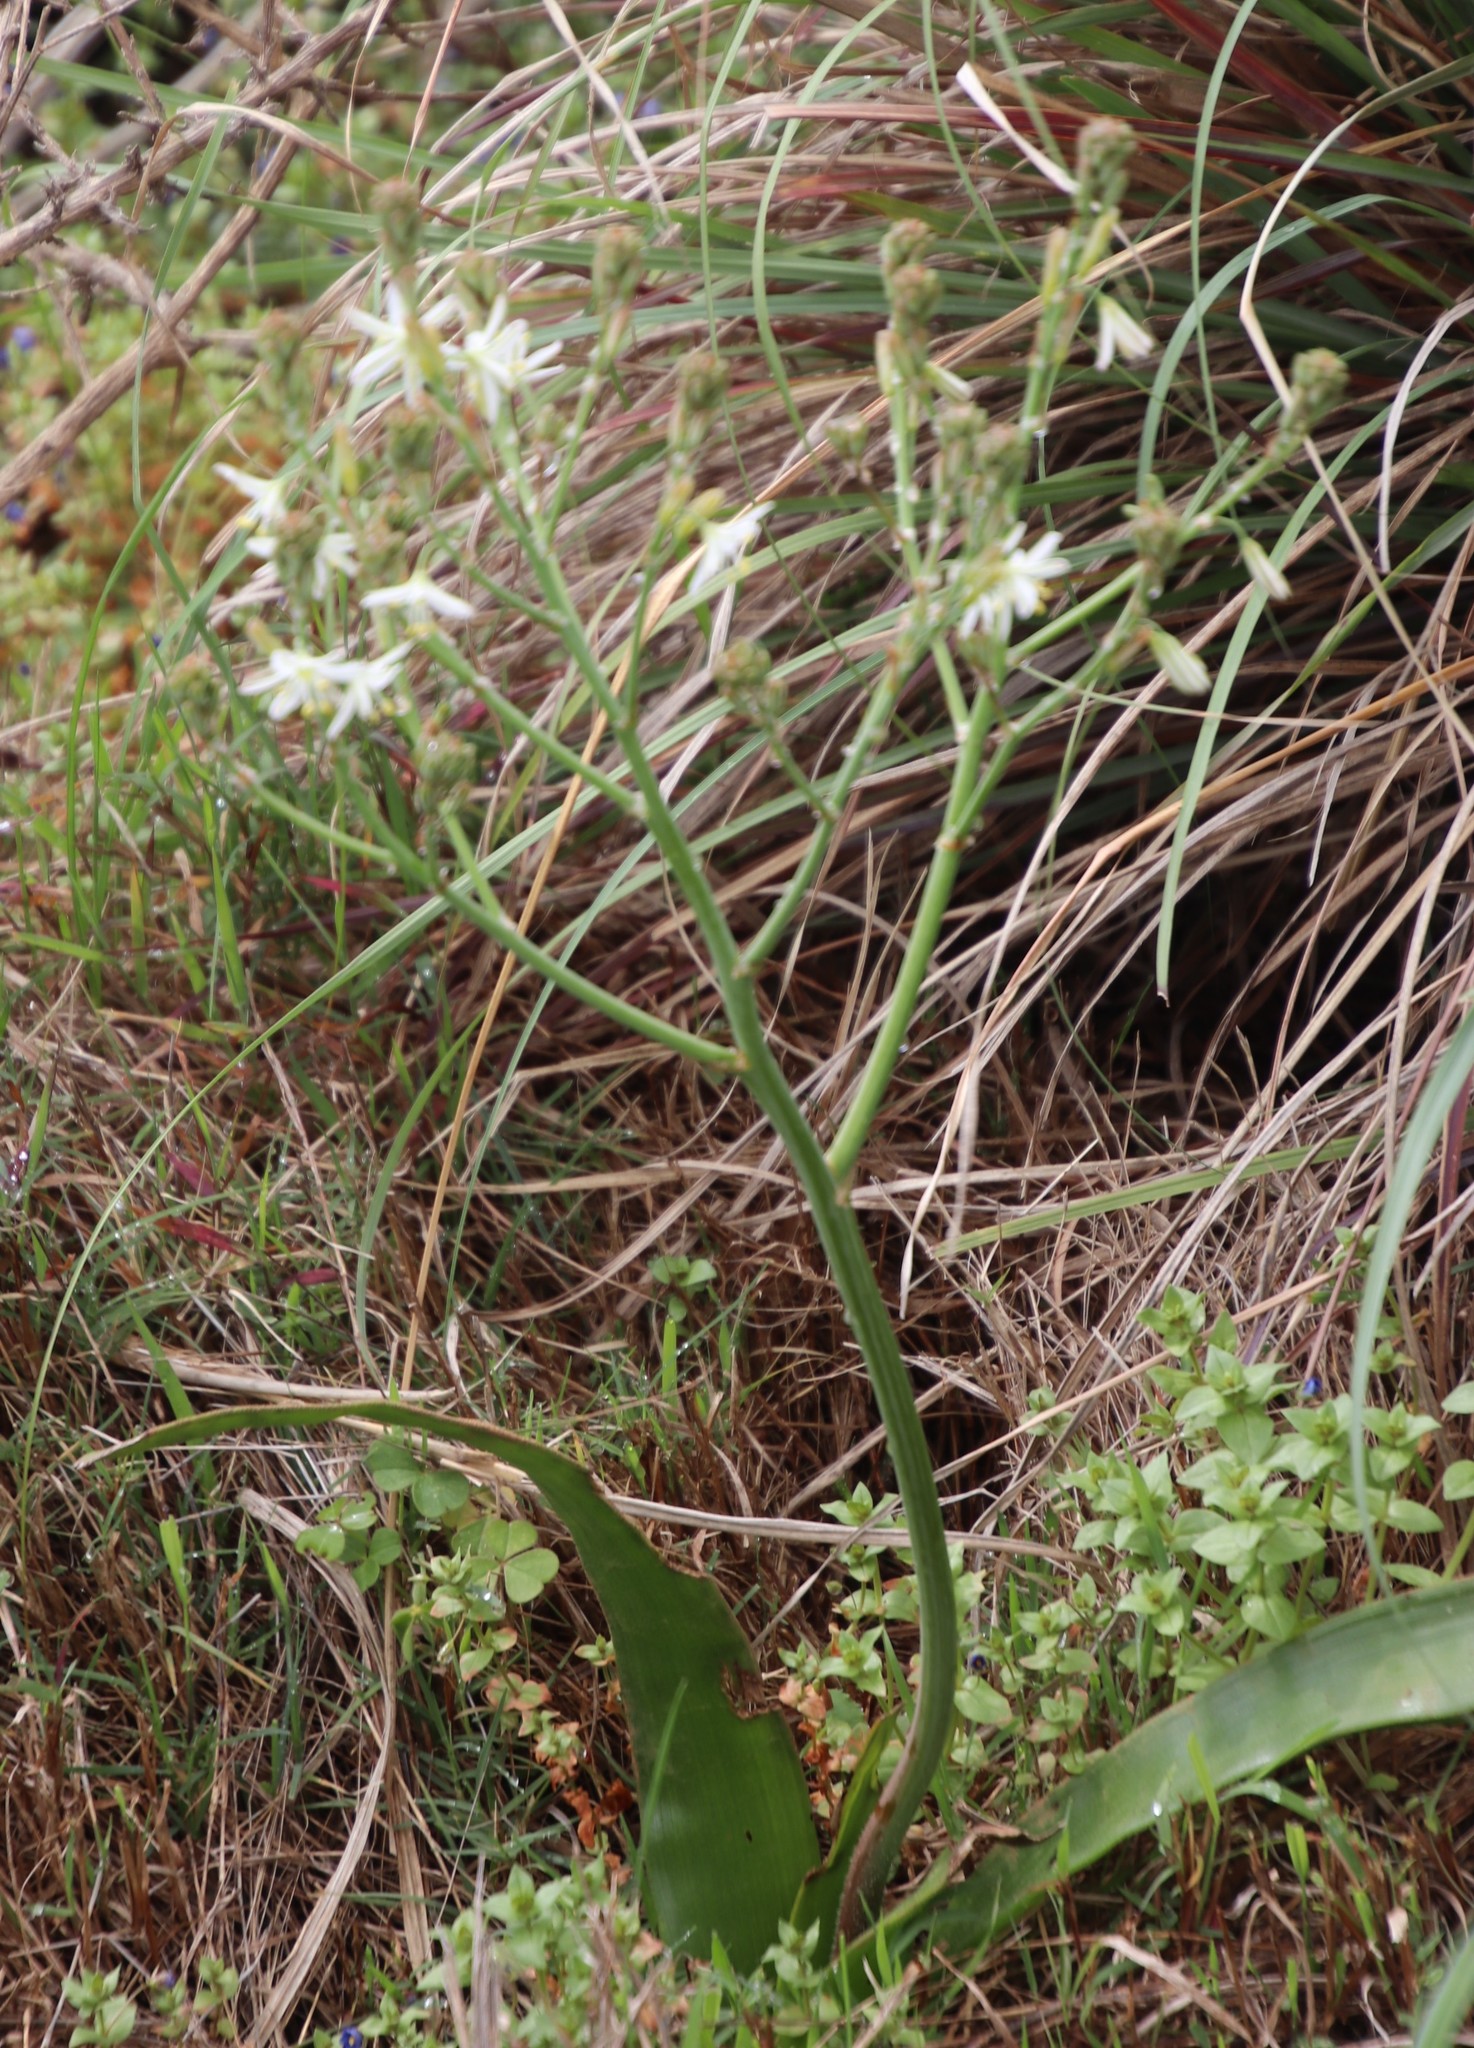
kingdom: Plantae
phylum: Tracheophyta
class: Liliopsida
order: Asparagales
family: Asphodelaceae
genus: Trachyandra
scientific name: Trachyandra muricata
